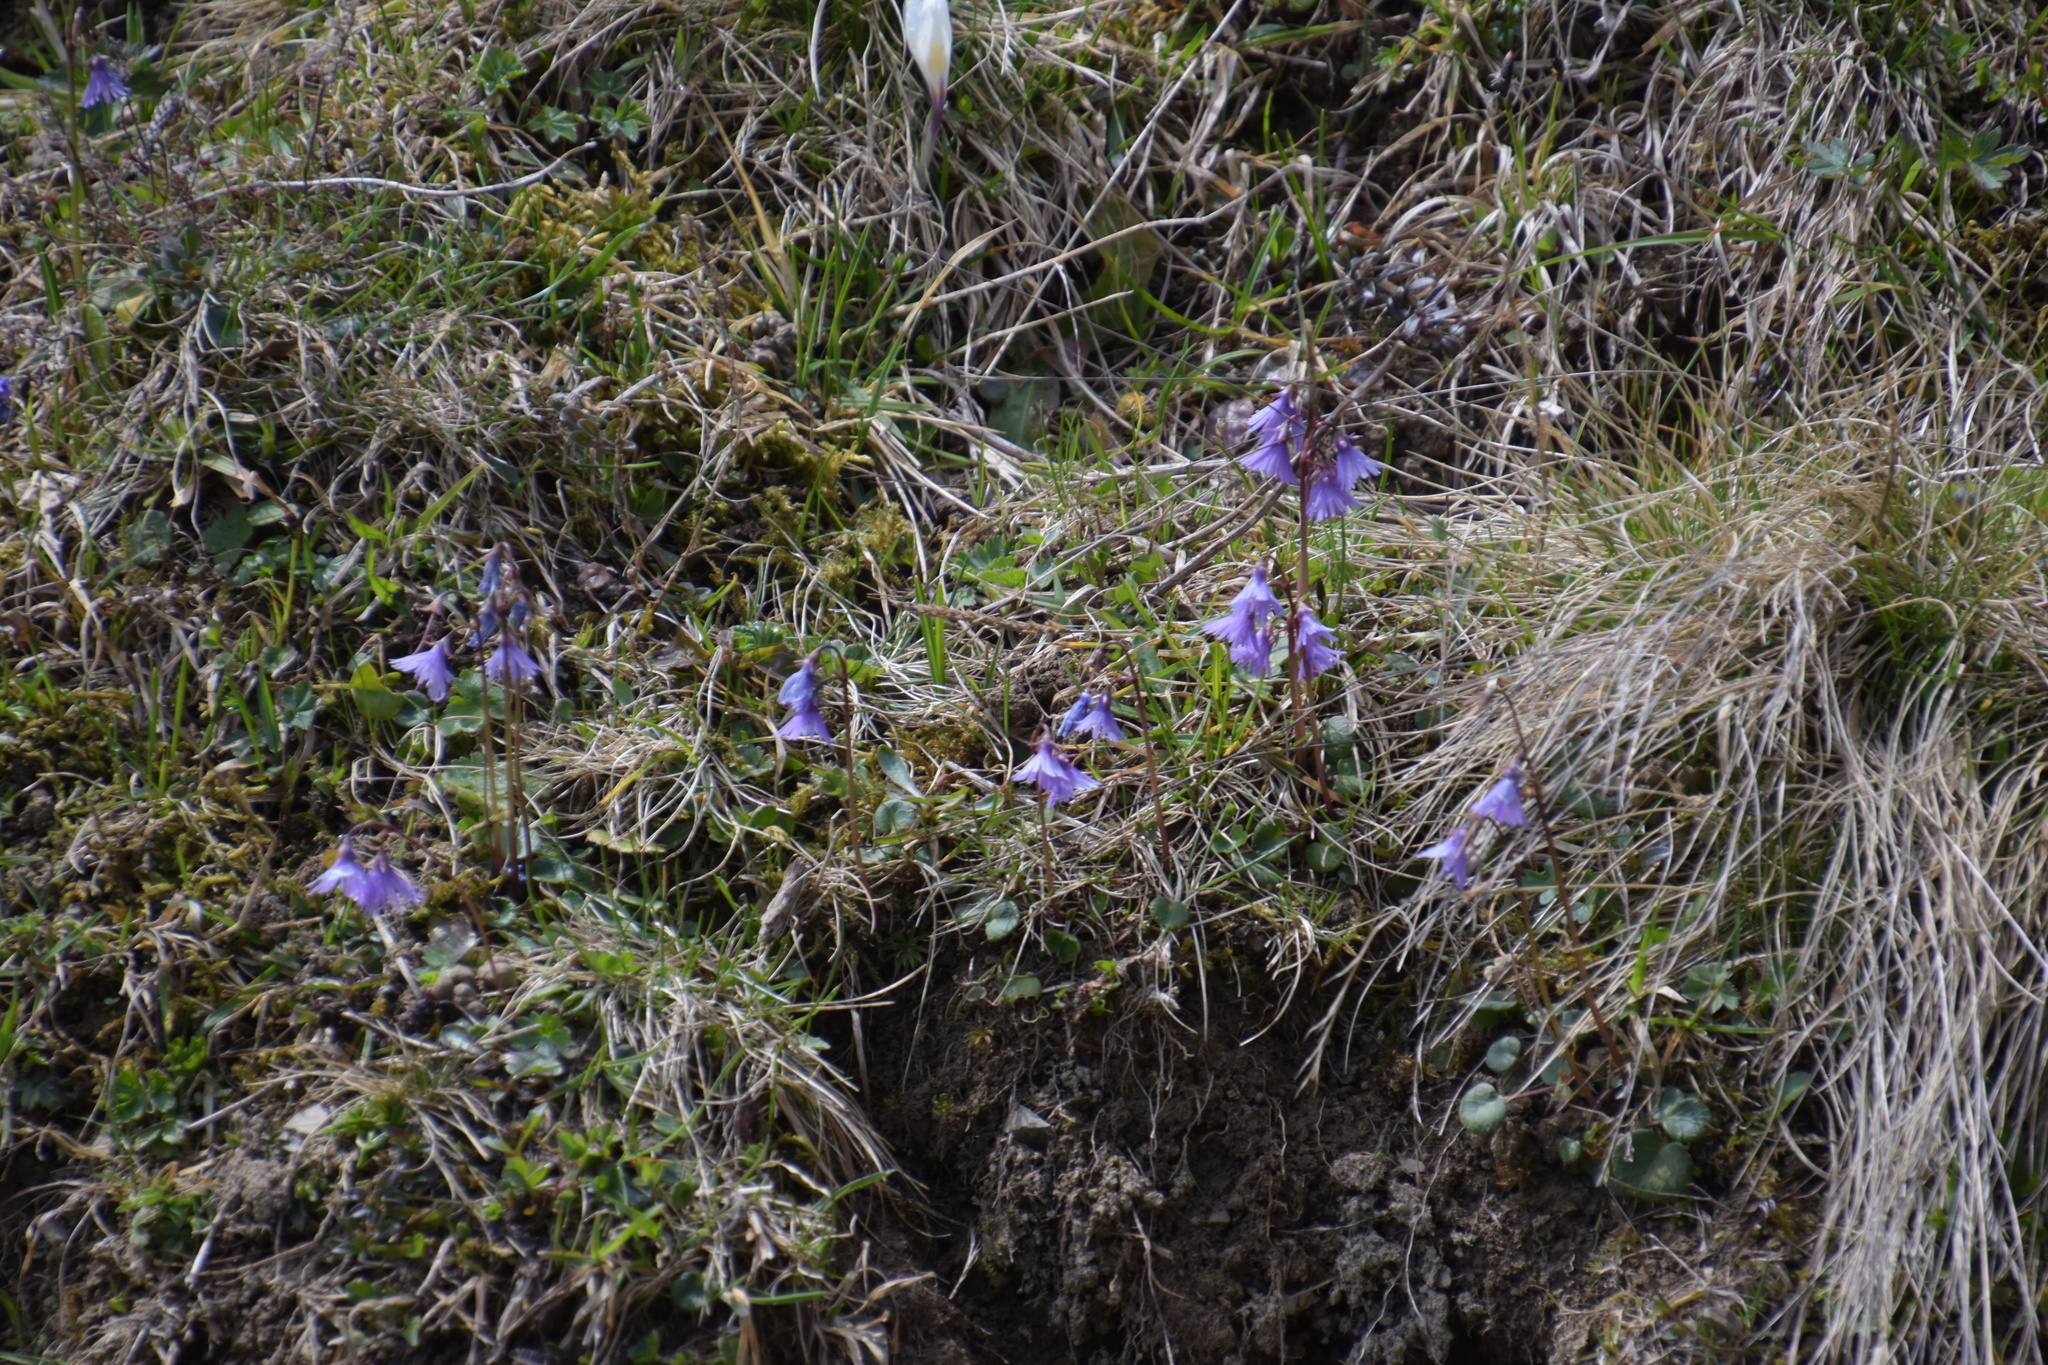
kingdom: Plantae
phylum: Tracheophyta
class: Magnoliopsida
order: Ericales
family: Primulaceae
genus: Soldanella
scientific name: Soldanella alpina
